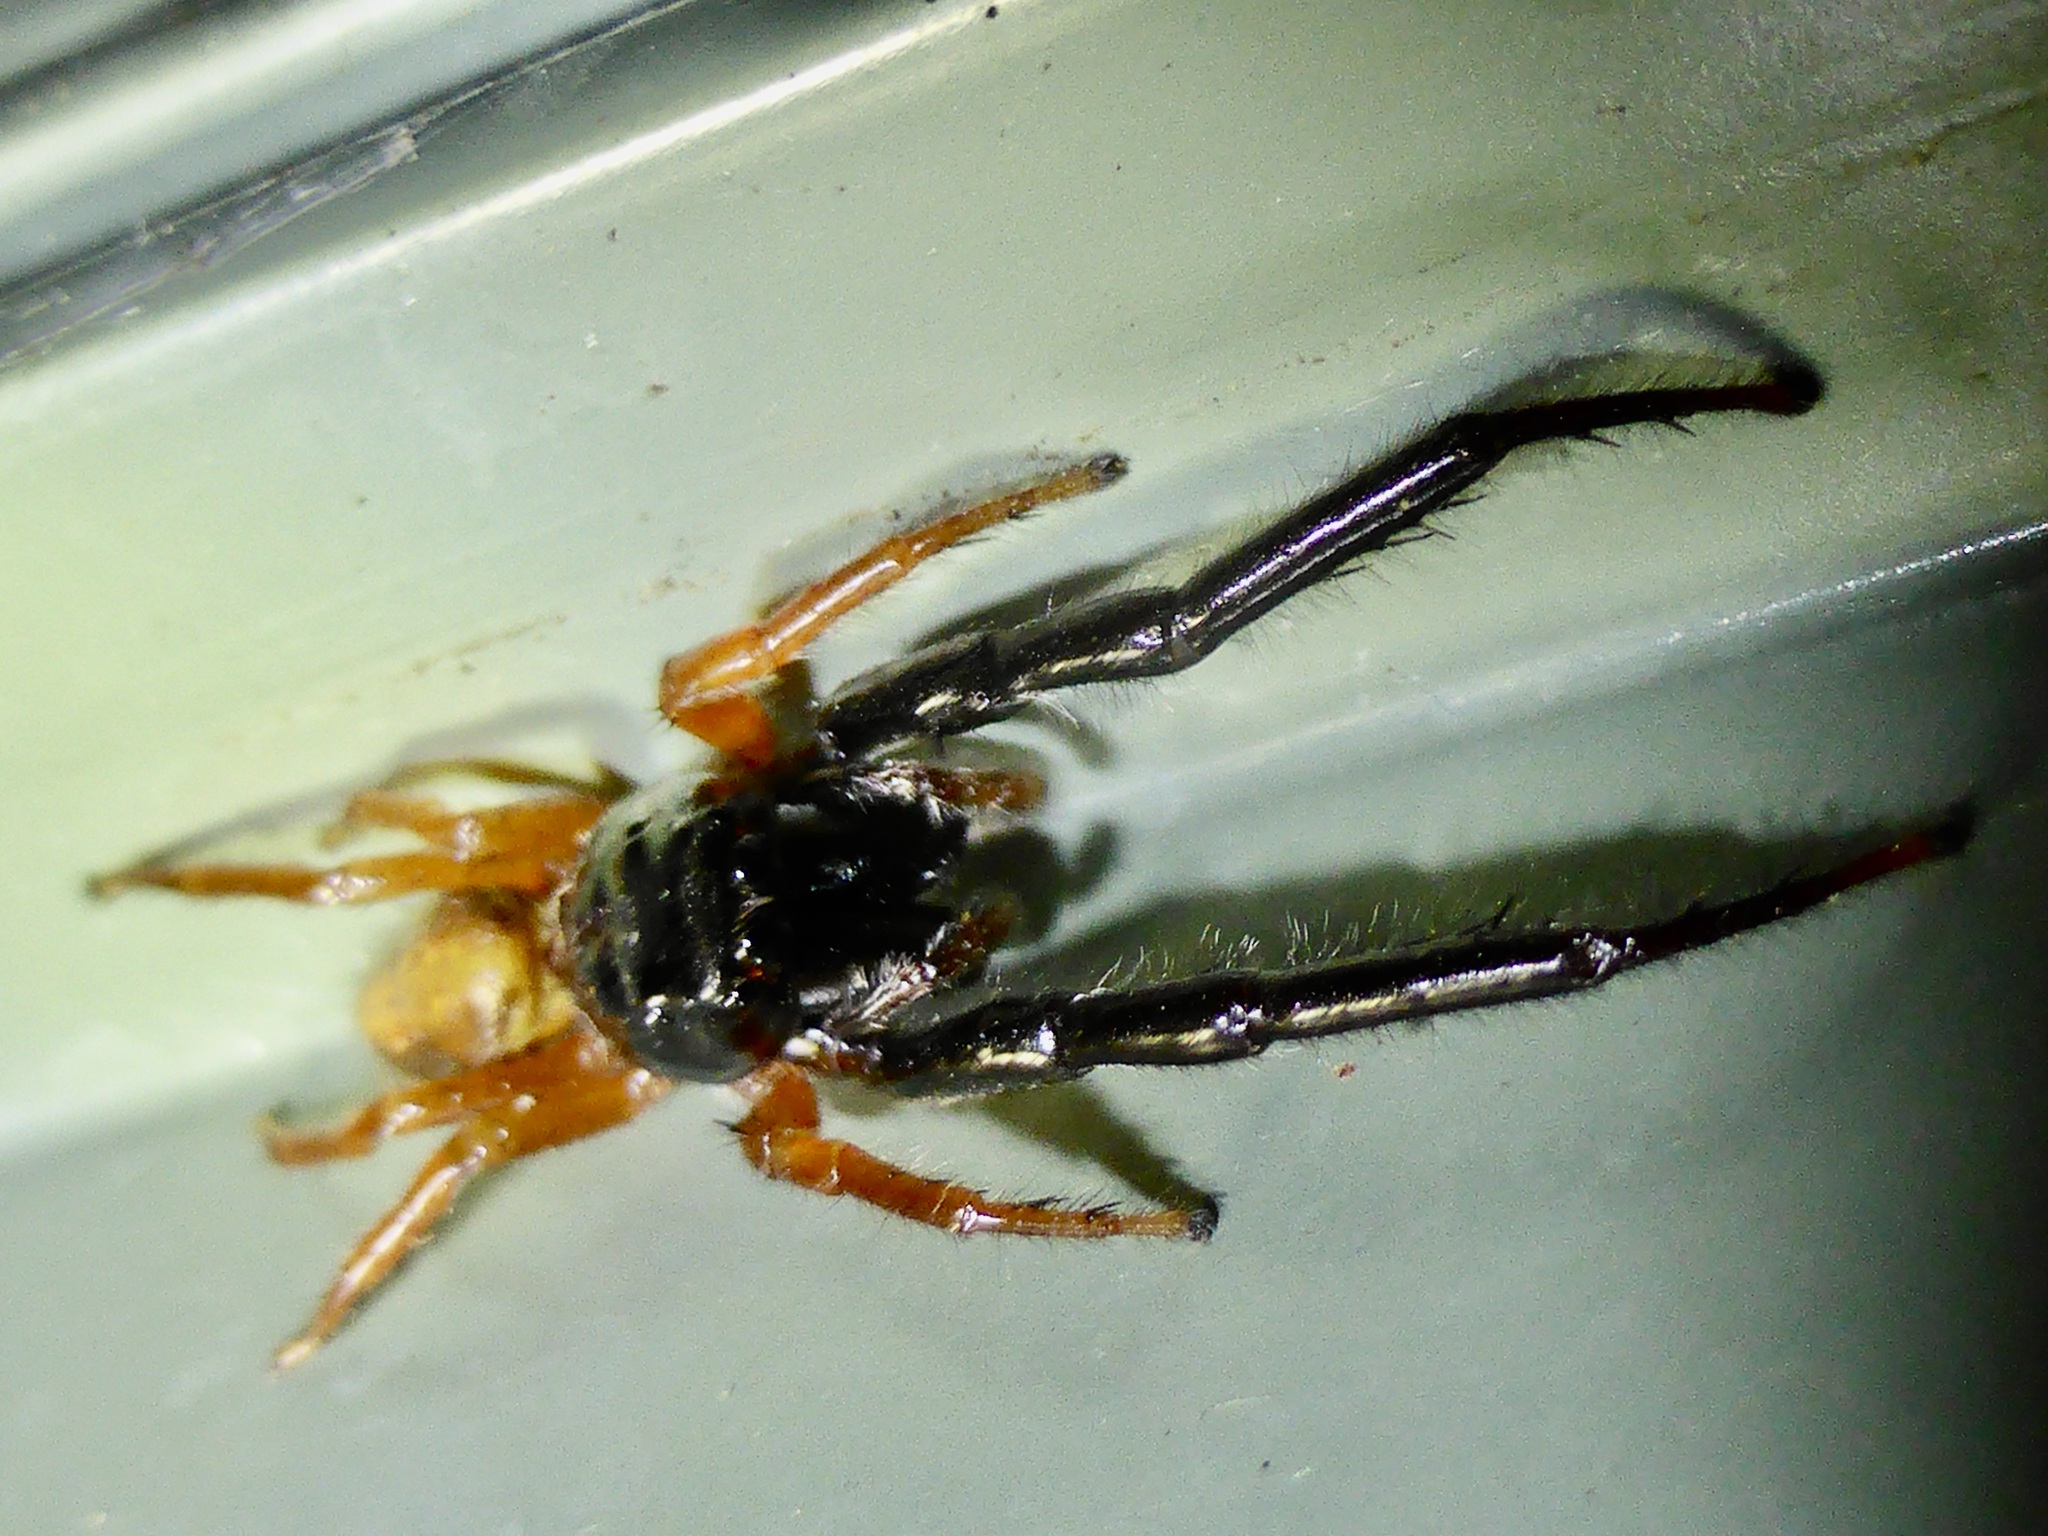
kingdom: Animalia
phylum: Arthropoda
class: Arachnida
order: Araneae
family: Salticidae
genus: Trite
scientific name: Trite planiceps
